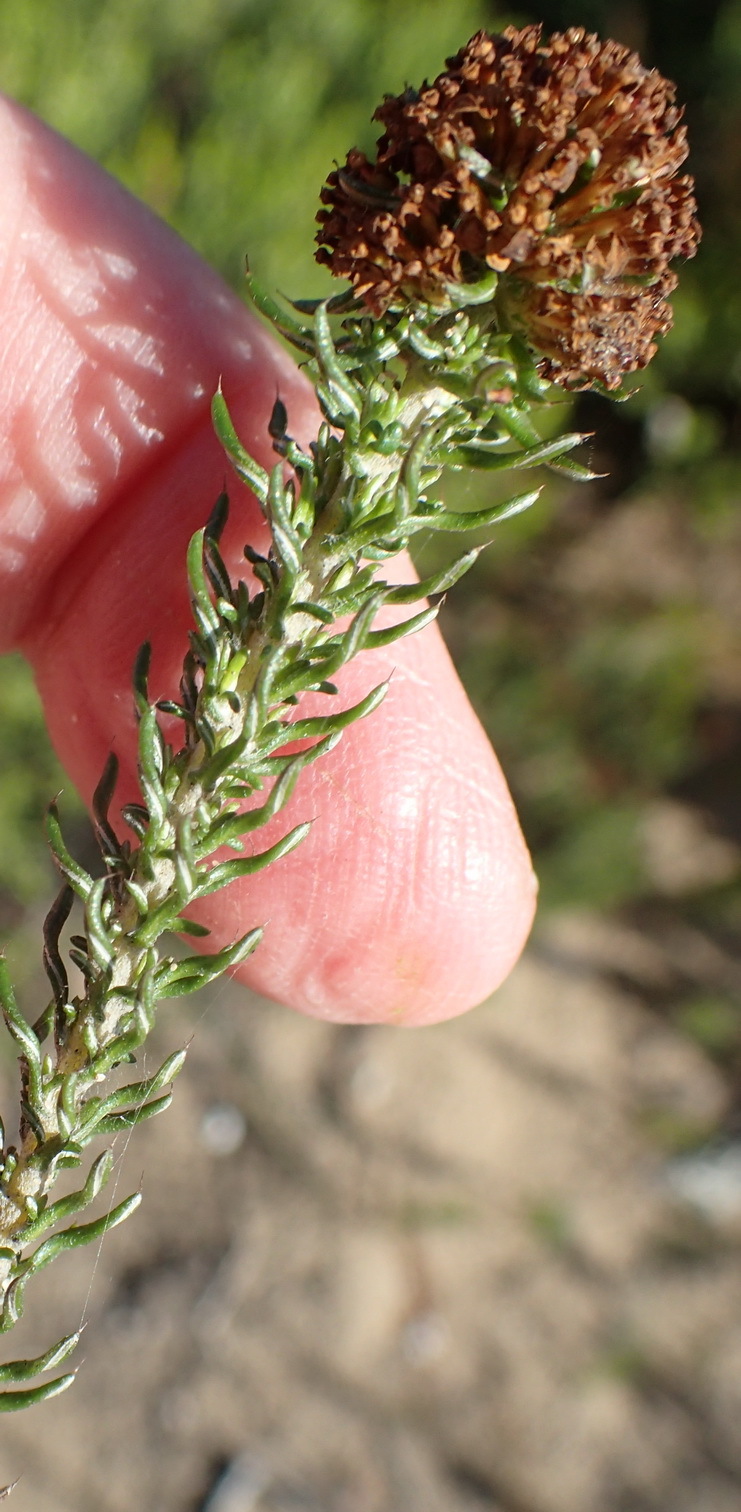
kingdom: Plantae
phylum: Tracheophyta
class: Magnoliopsida
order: Asterales
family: Asteraceae
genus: Disparago
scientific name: Disparago anomala
